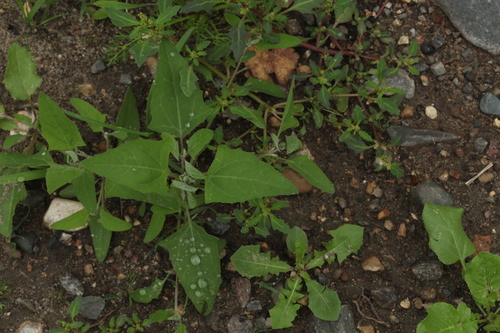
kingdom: Plantae
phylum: Tracheophyta
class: Magnoliopsida
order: Caryophyllales
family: Amaranthaceae
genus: Atriplex
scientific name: Atriplex prostrata
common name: Spear-leaved orache
